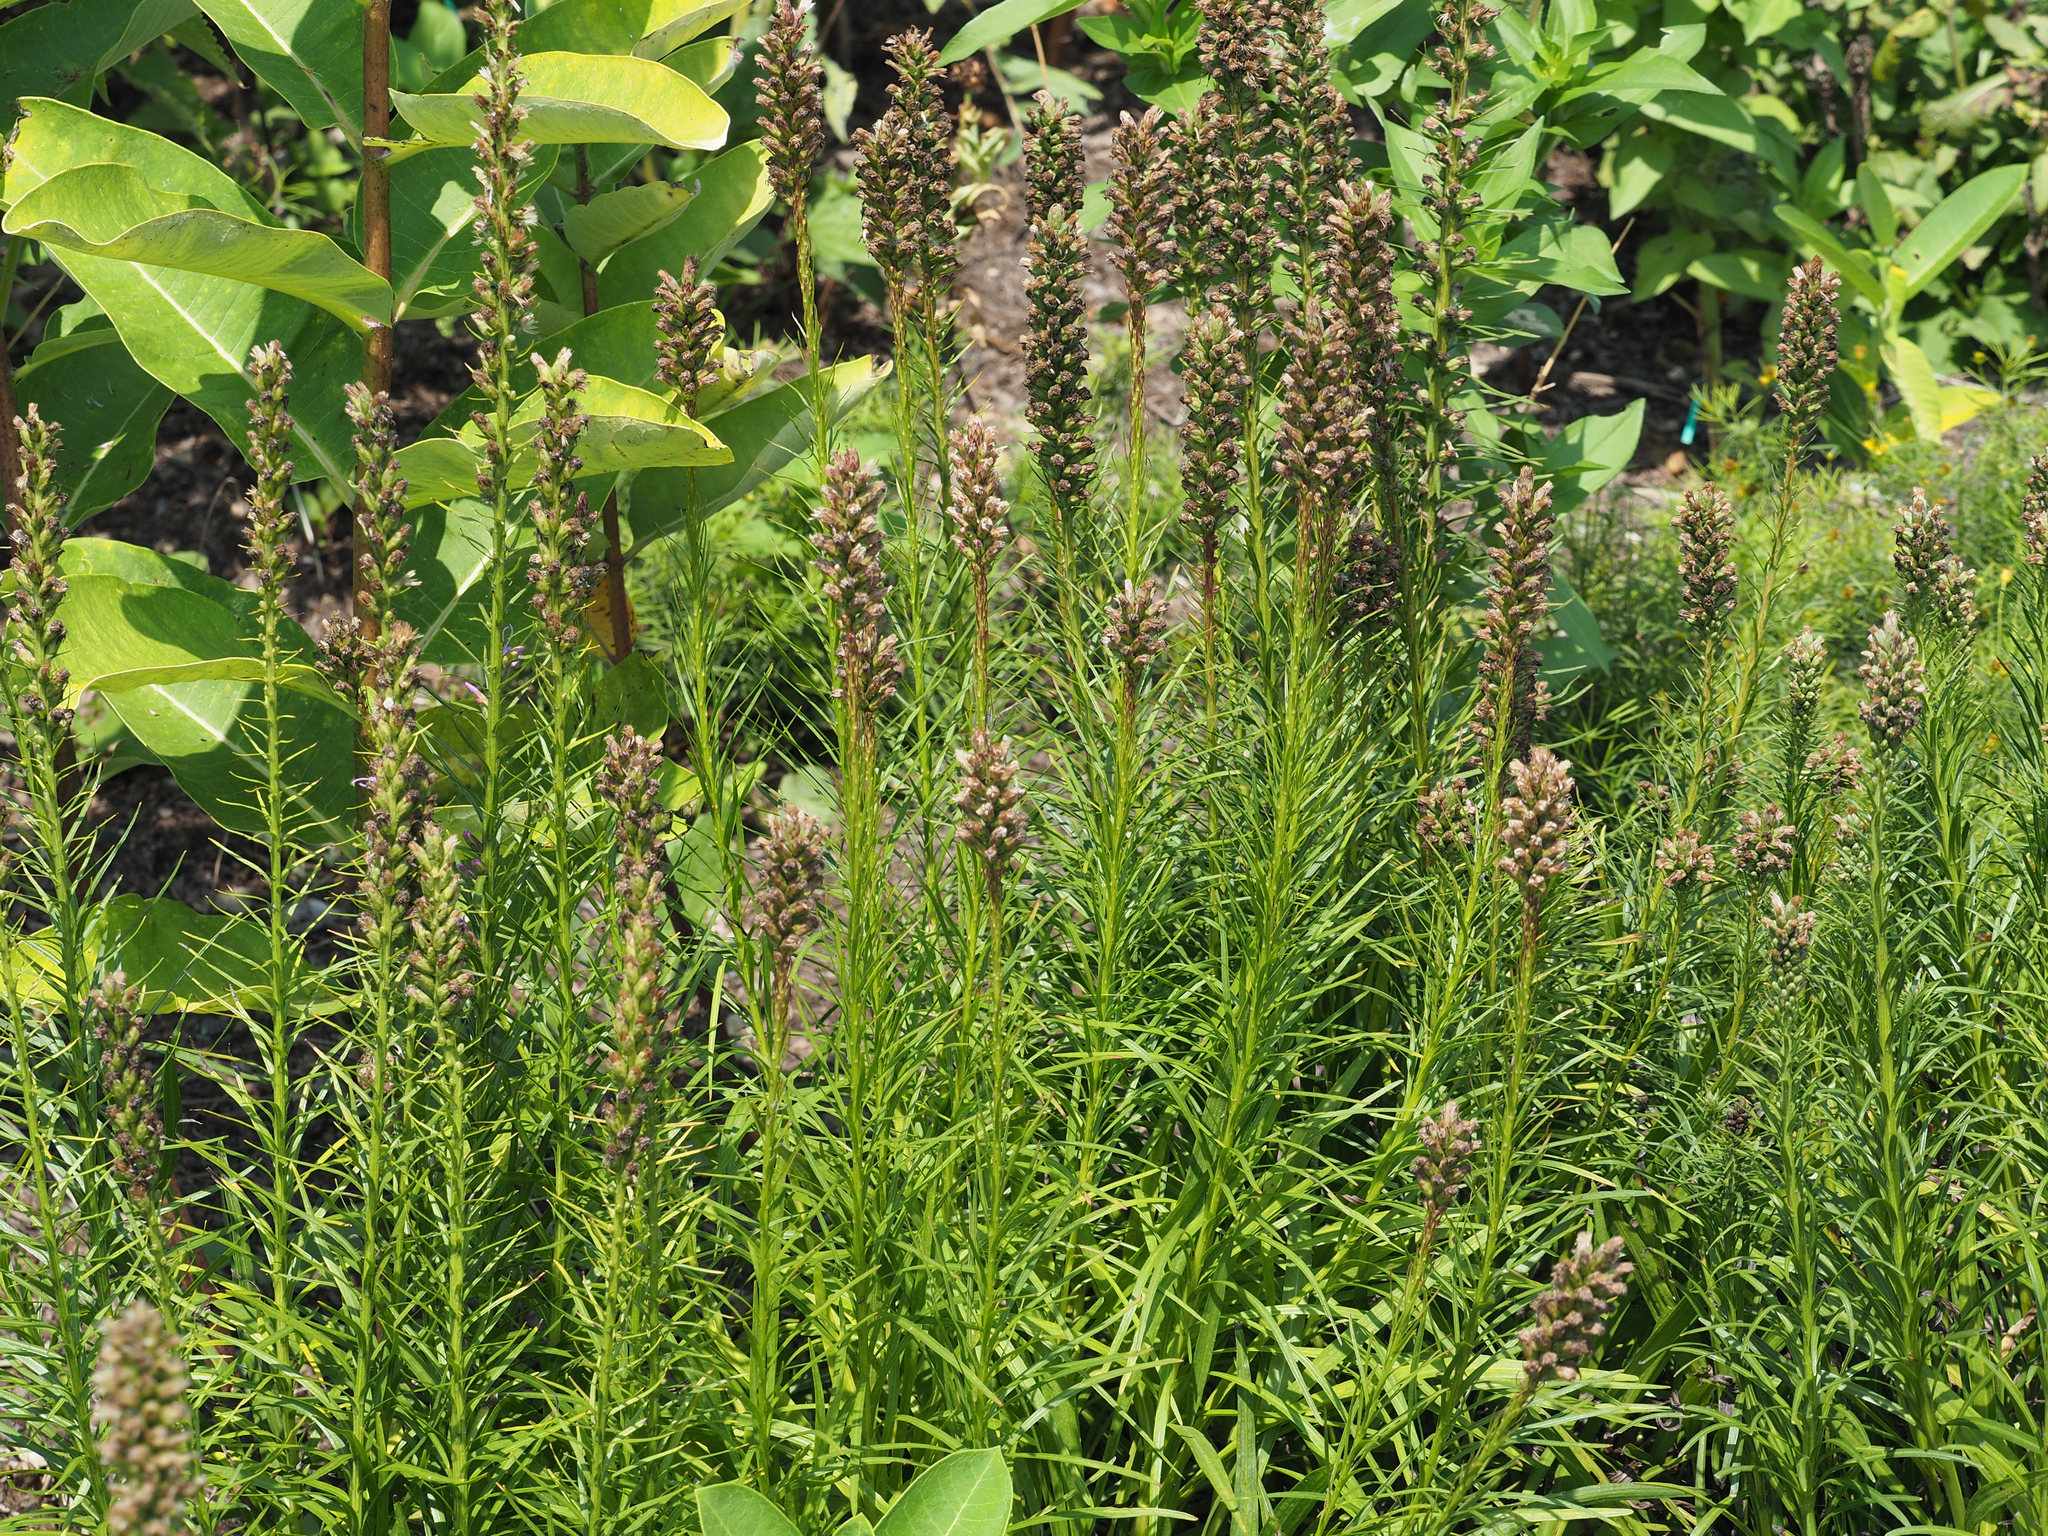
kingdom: Plantae
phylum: Tracheophyta
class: Magnoliopsida
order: Asterales
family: Asteraceae
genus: Liatris
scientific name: Liatris spicata
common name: Florist gayfeather
